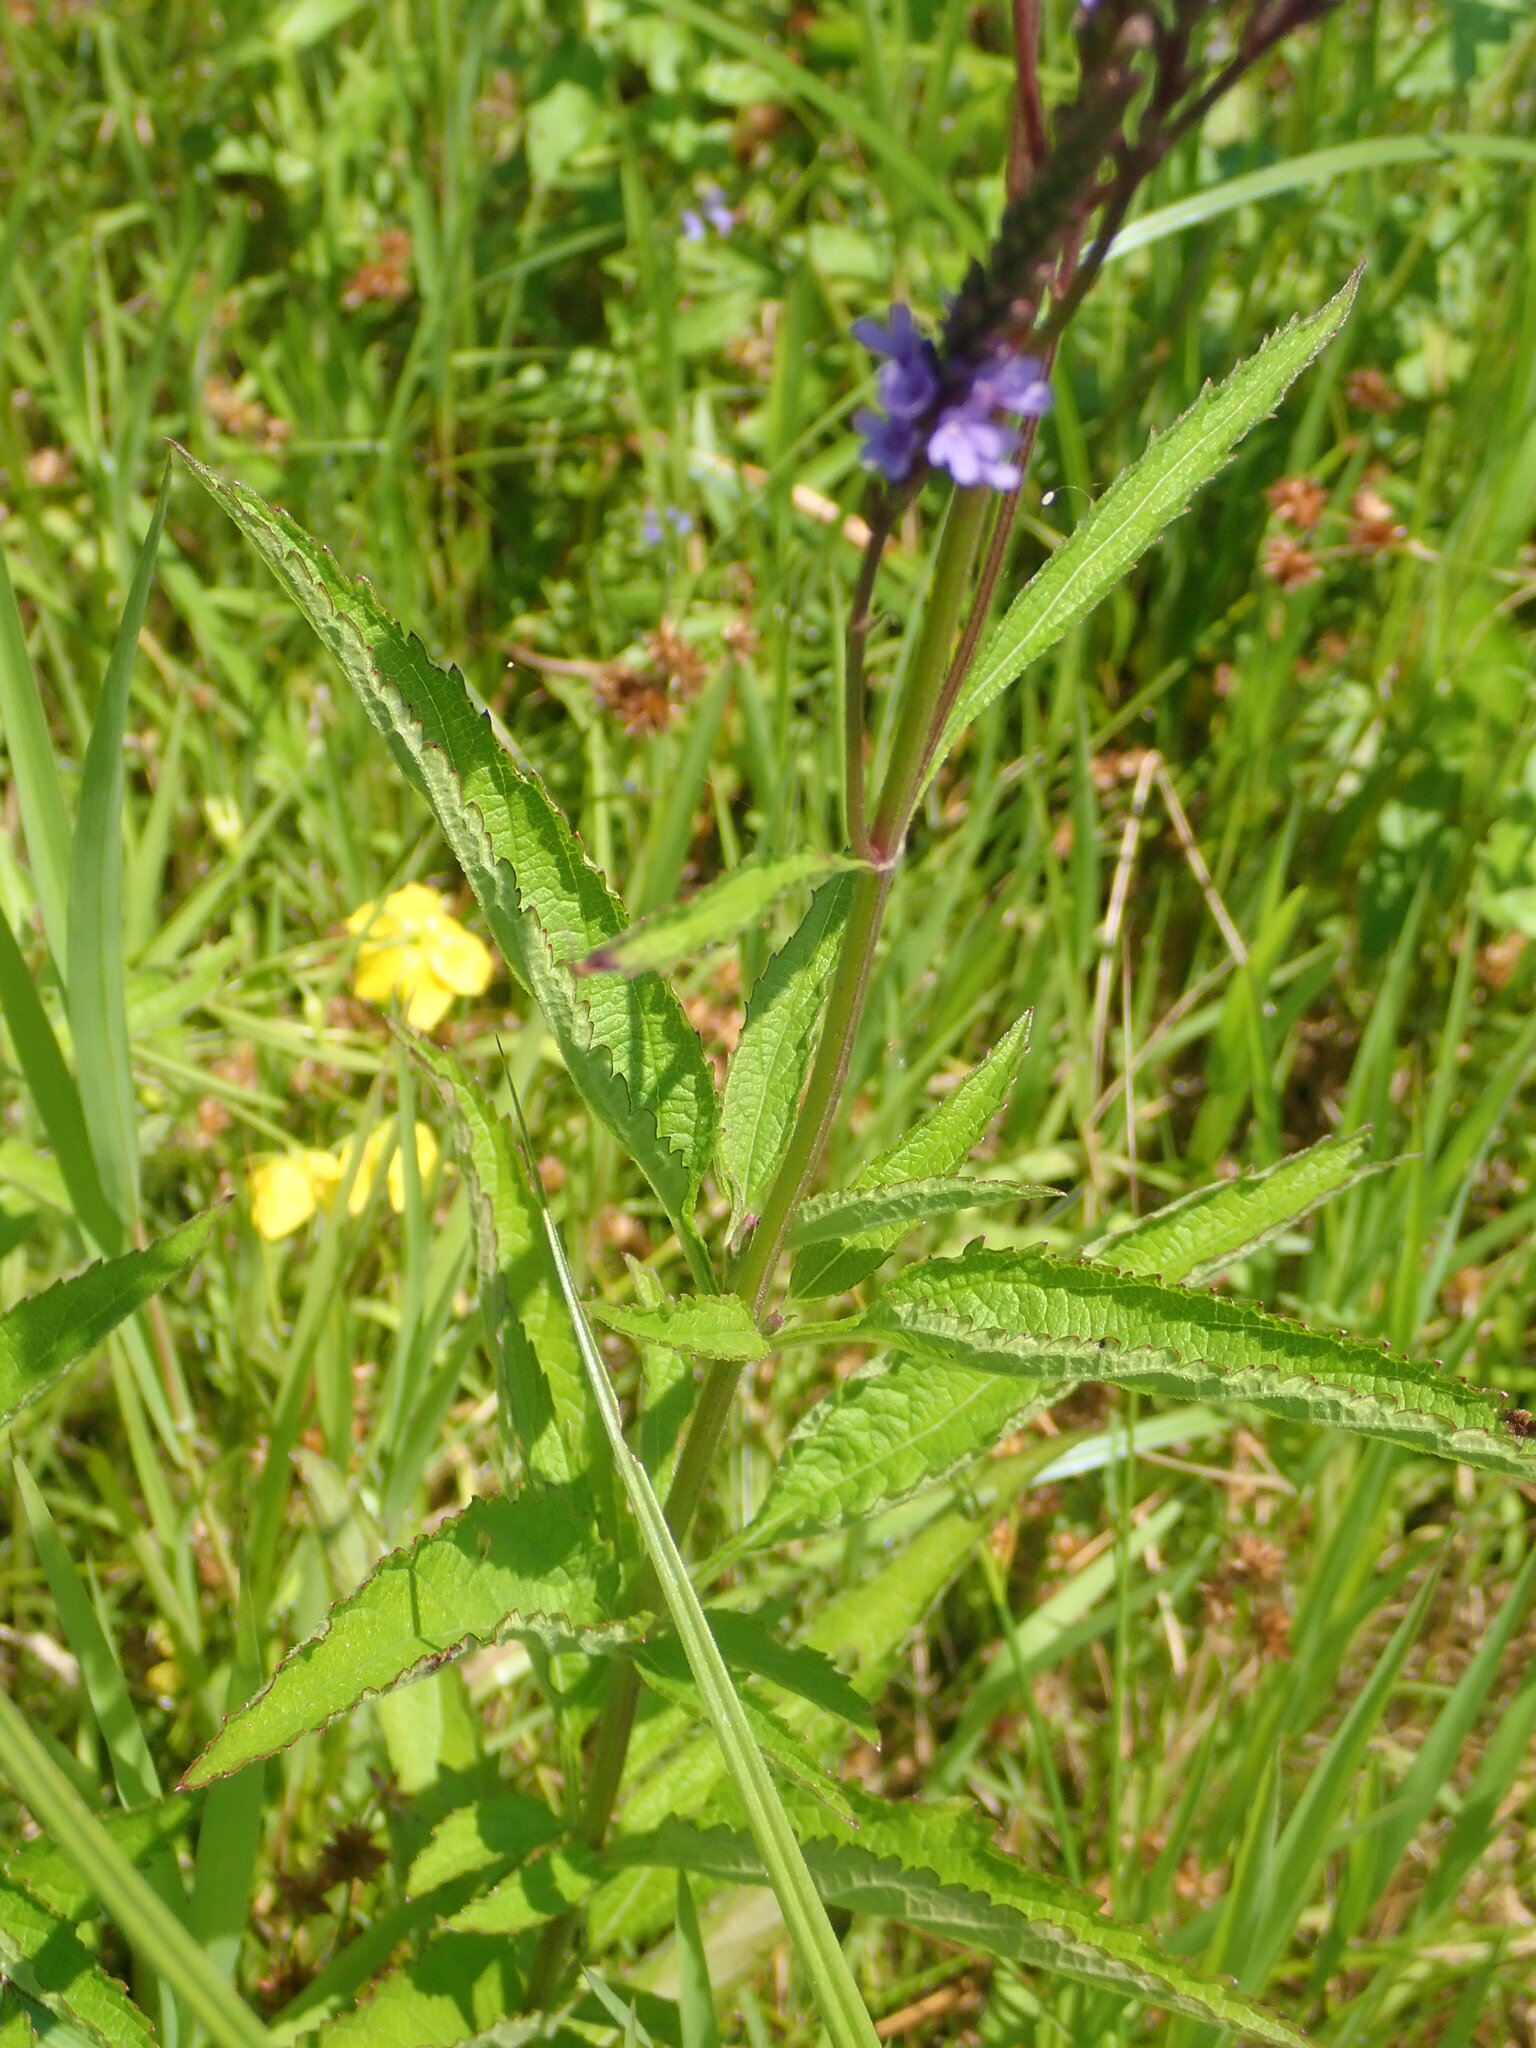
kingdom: Plantae
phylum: Tracheophyta
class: Magnoliopsida
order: Lamiales
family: Verbenaceae
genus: Verbena
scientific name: Verbena hastata
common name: American blue vervain
